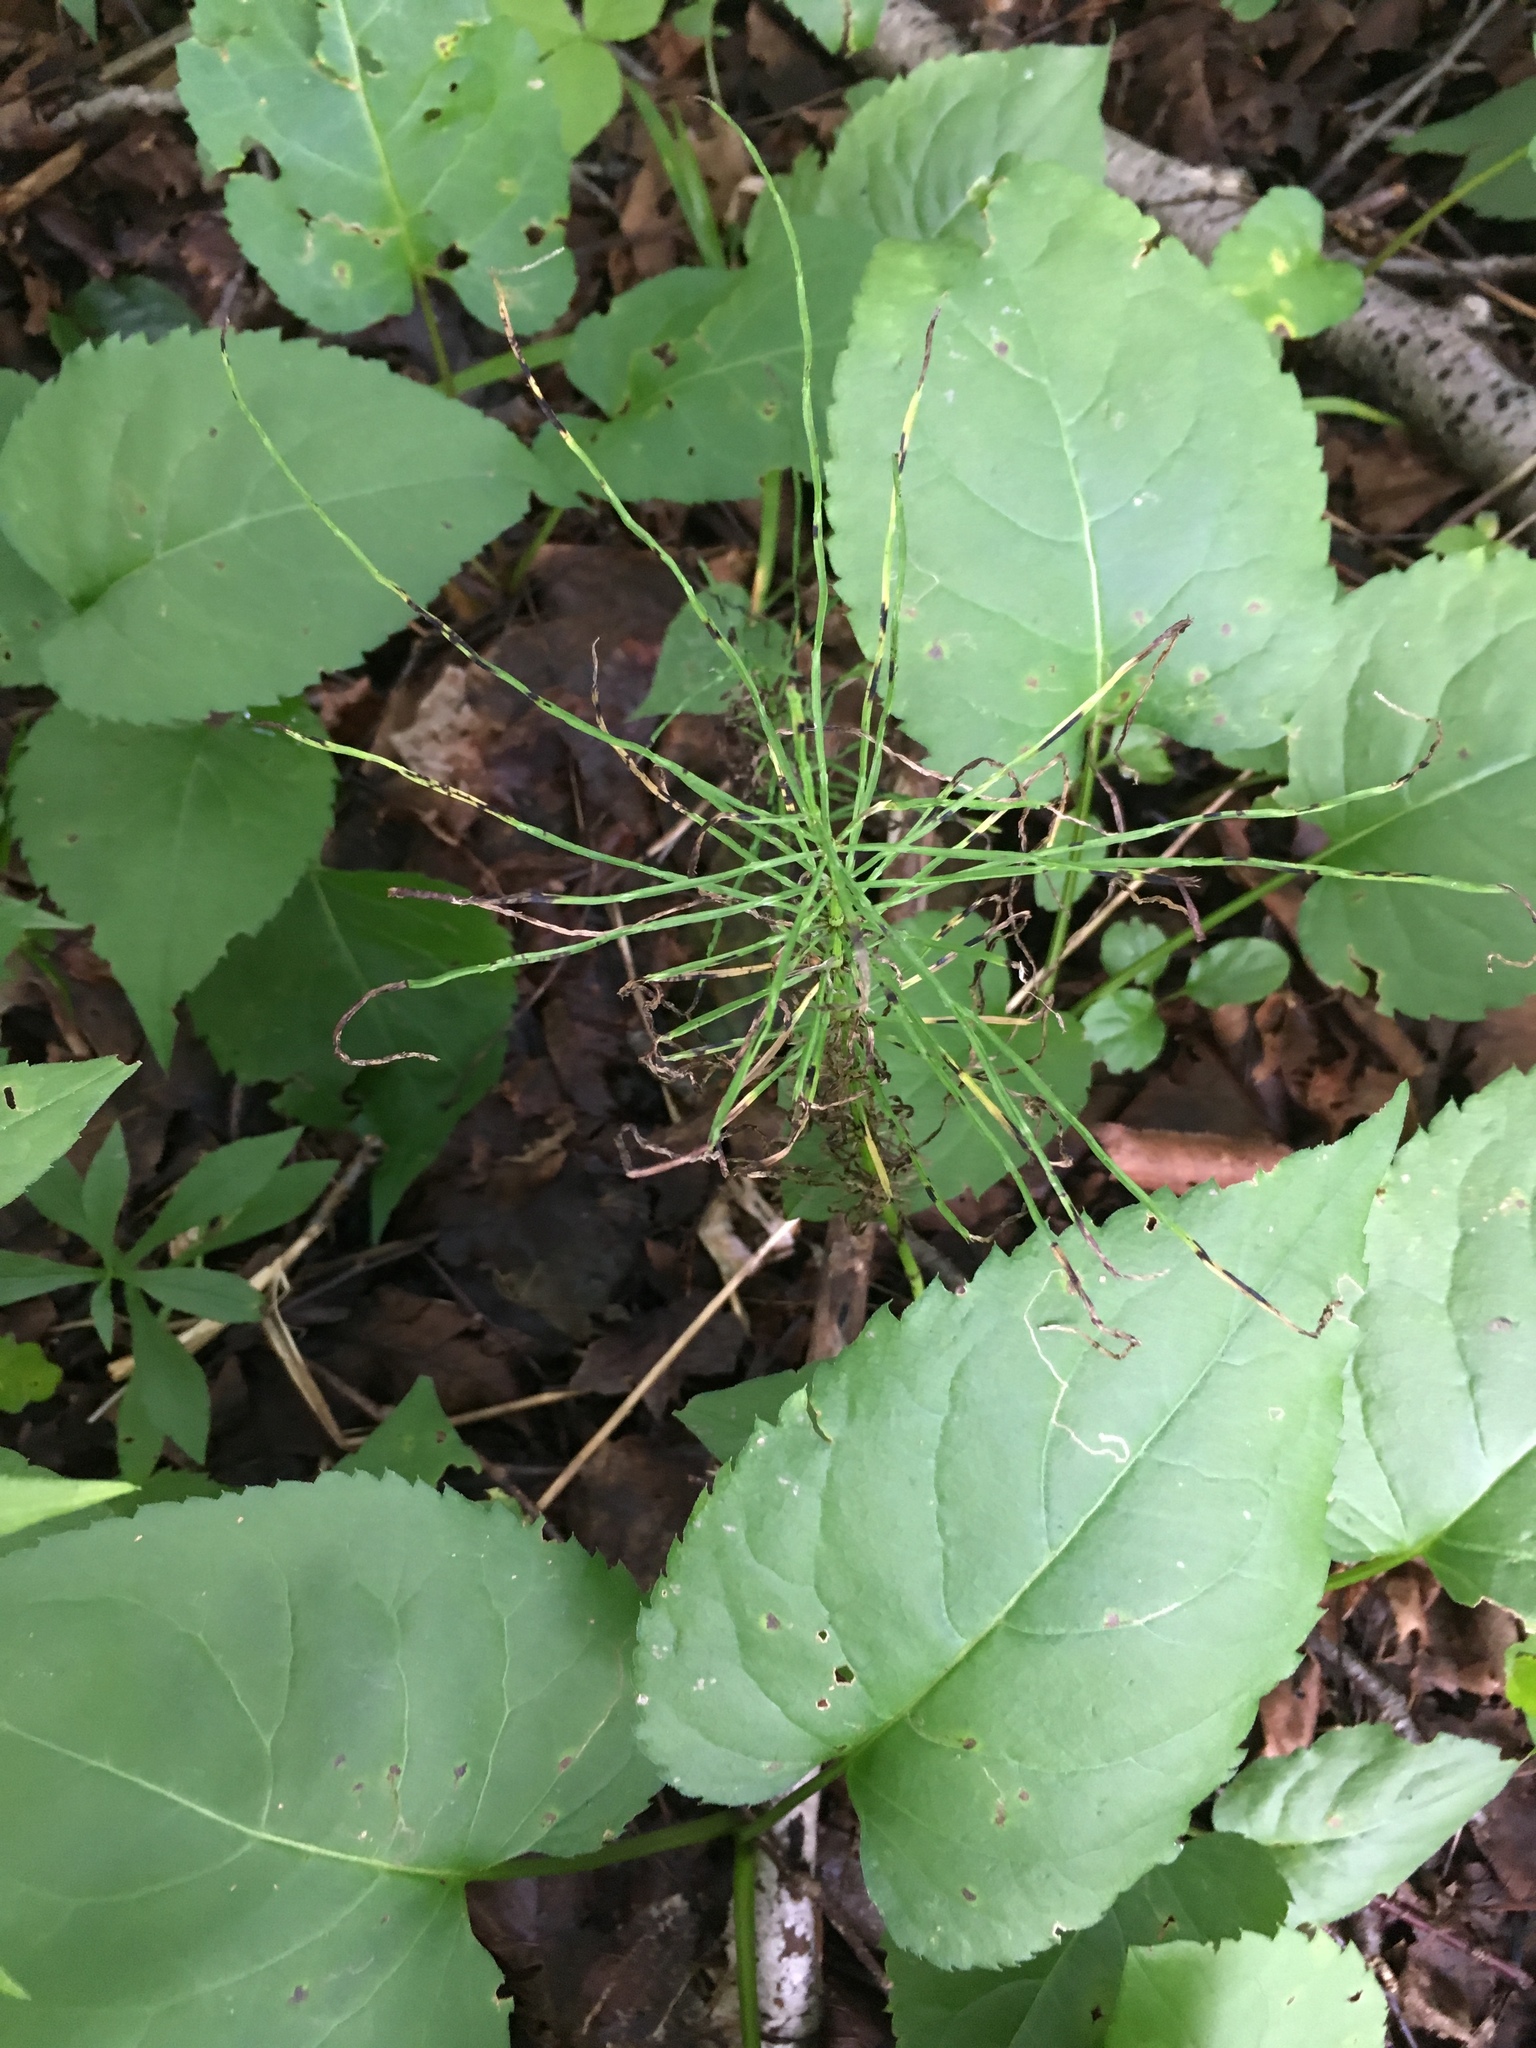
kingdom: Plantae
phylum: Tracheophyta
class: Polypodiopsida
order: Equisetales
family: Equisetaceae
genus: Equisetum
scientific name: Equisetum arvense
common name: Field horsetail
